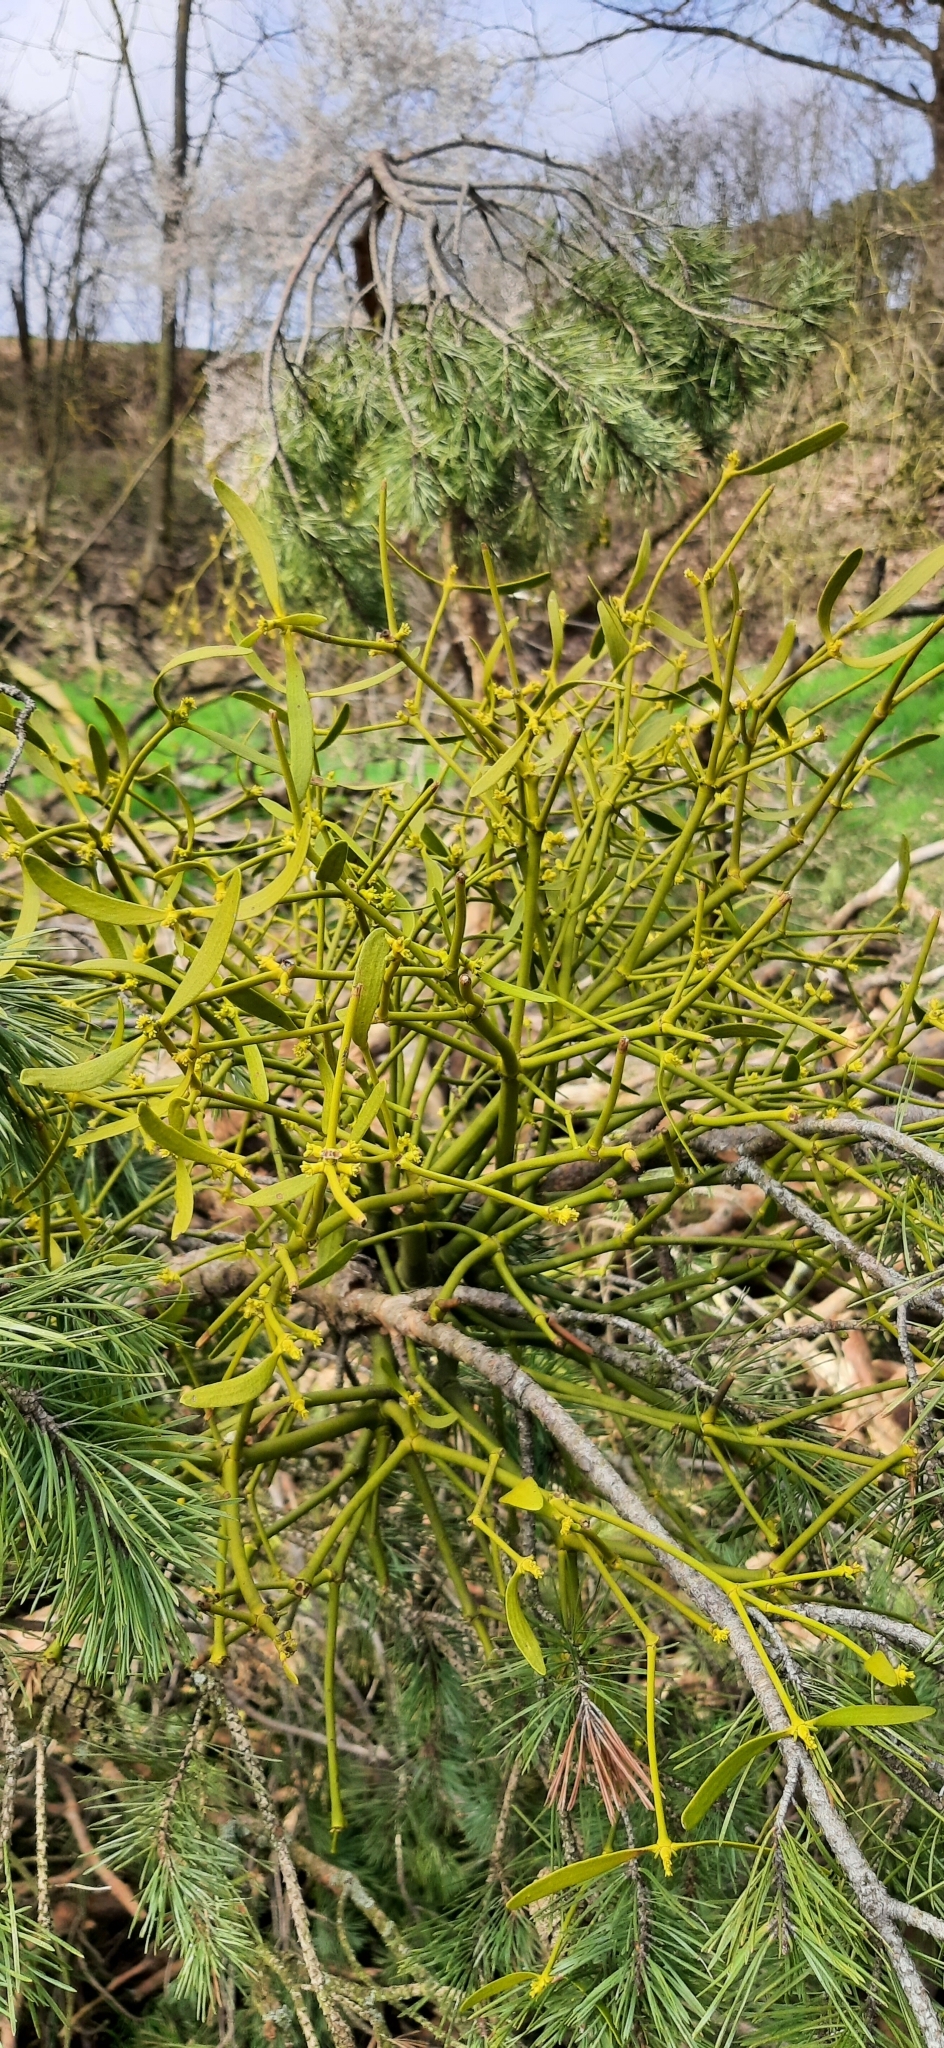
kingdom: Plantae
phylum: Tracheophyta
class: Magnoliopsida
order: Santalales
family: Viscaceae
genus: Viscum
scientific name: Viscum album
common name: Mistletoe
